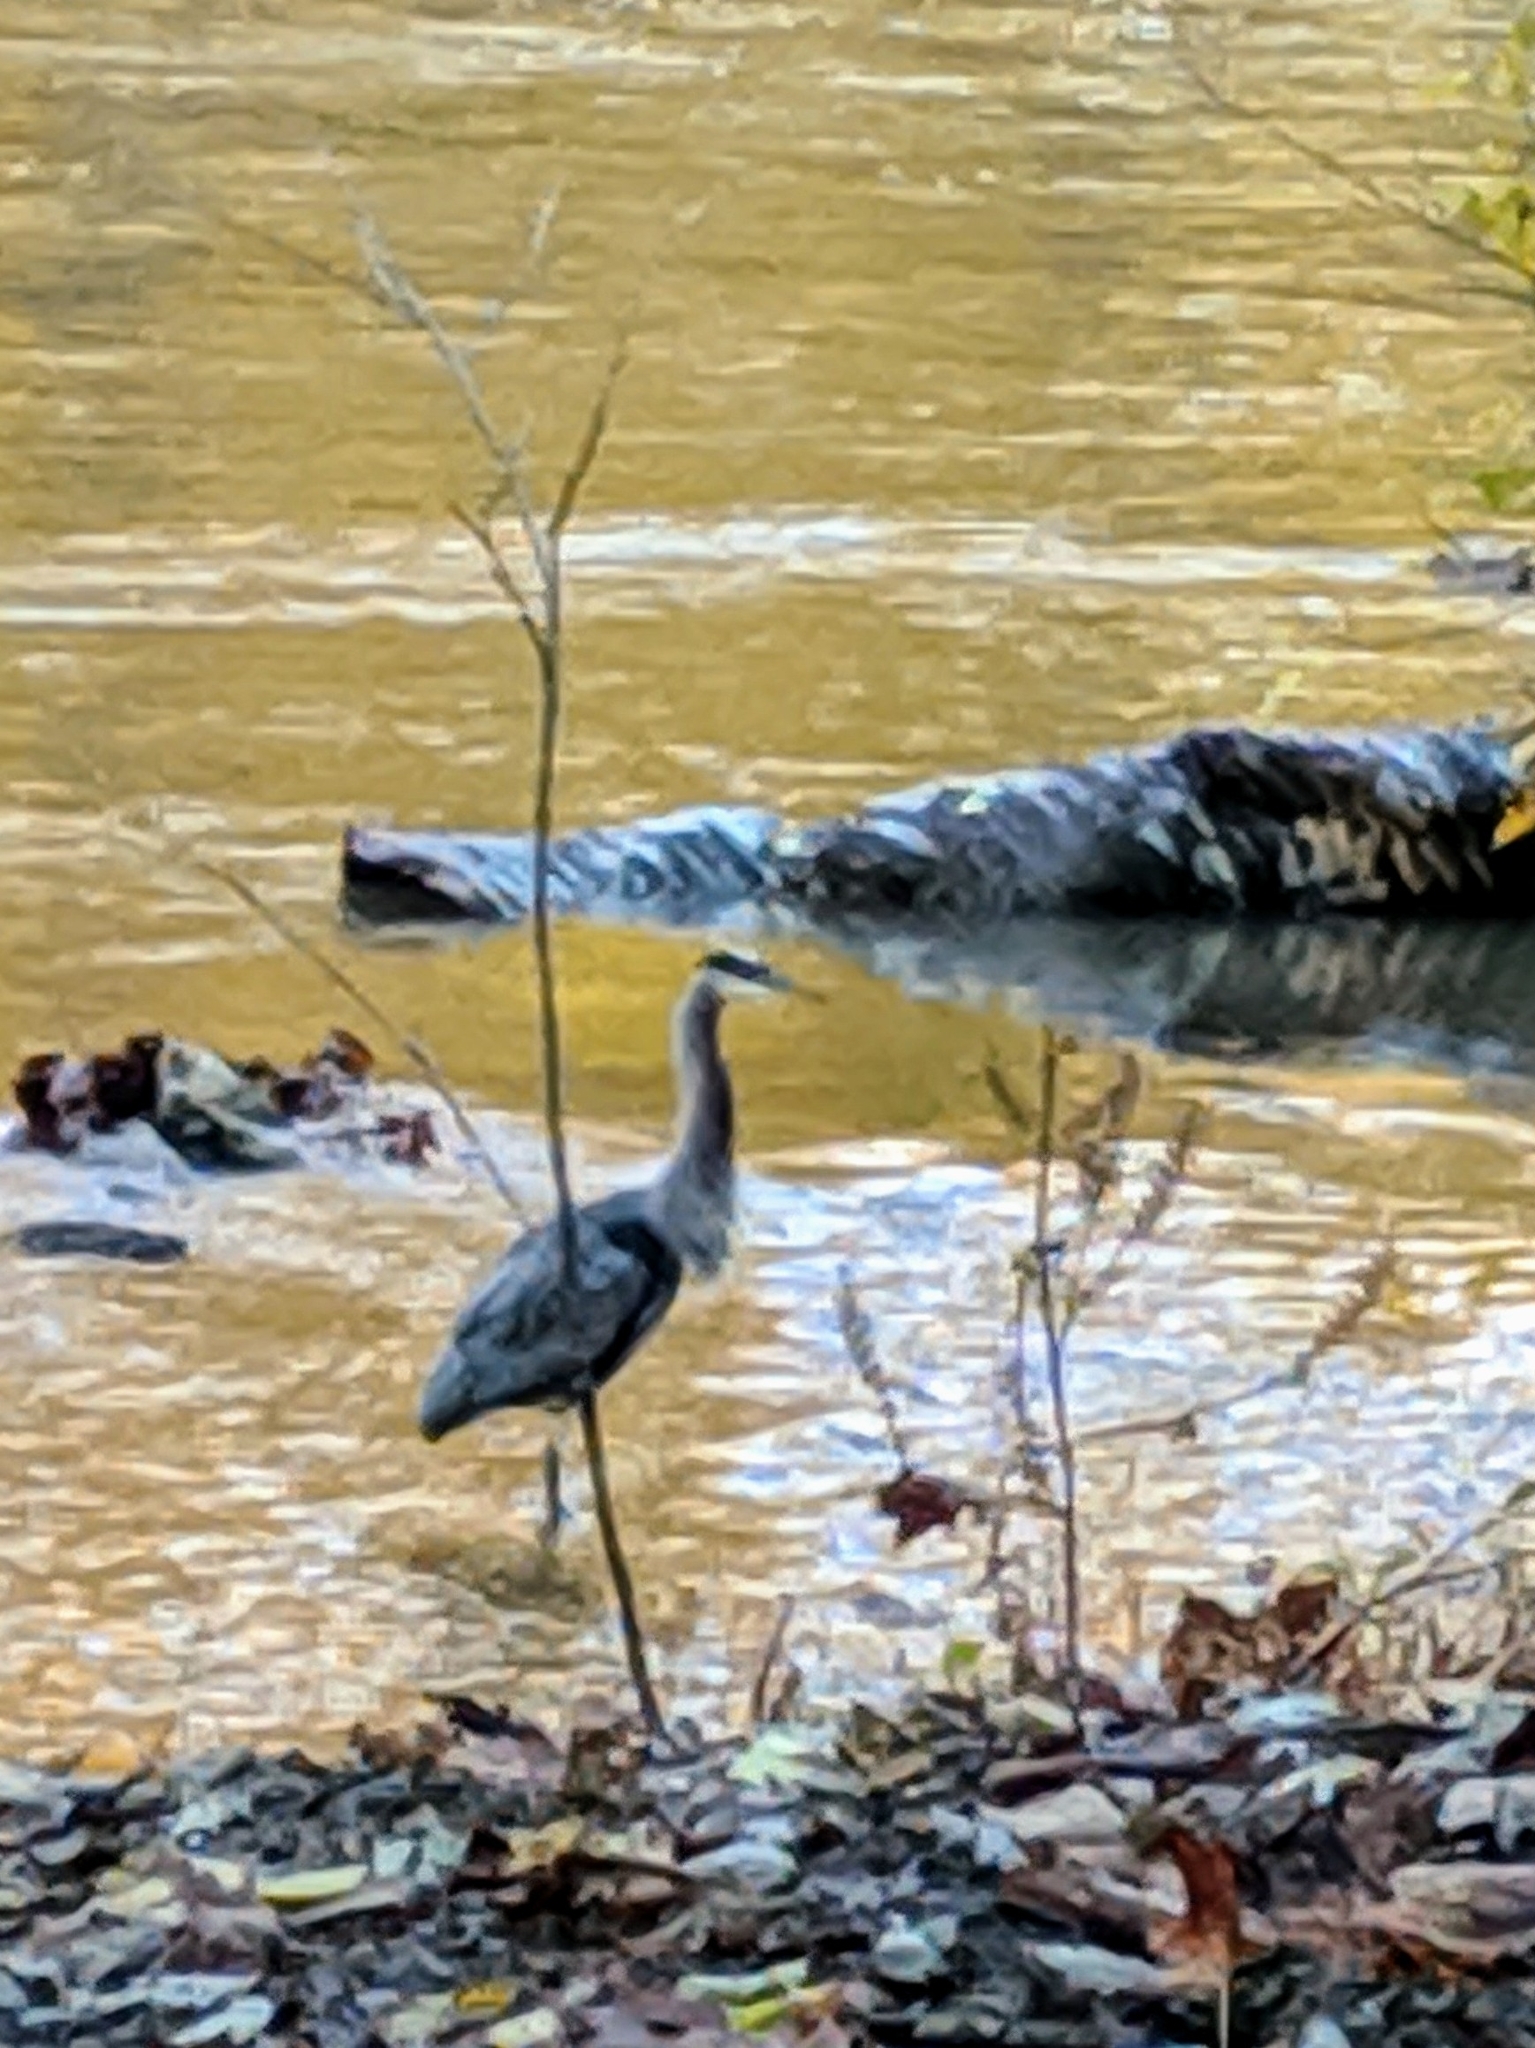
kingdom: Animalia
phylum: Chordata
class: Aves
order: Pelecaniformes
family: Ardeidae
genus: Ardea
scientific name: Ardea herodias
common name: Great blue heron
